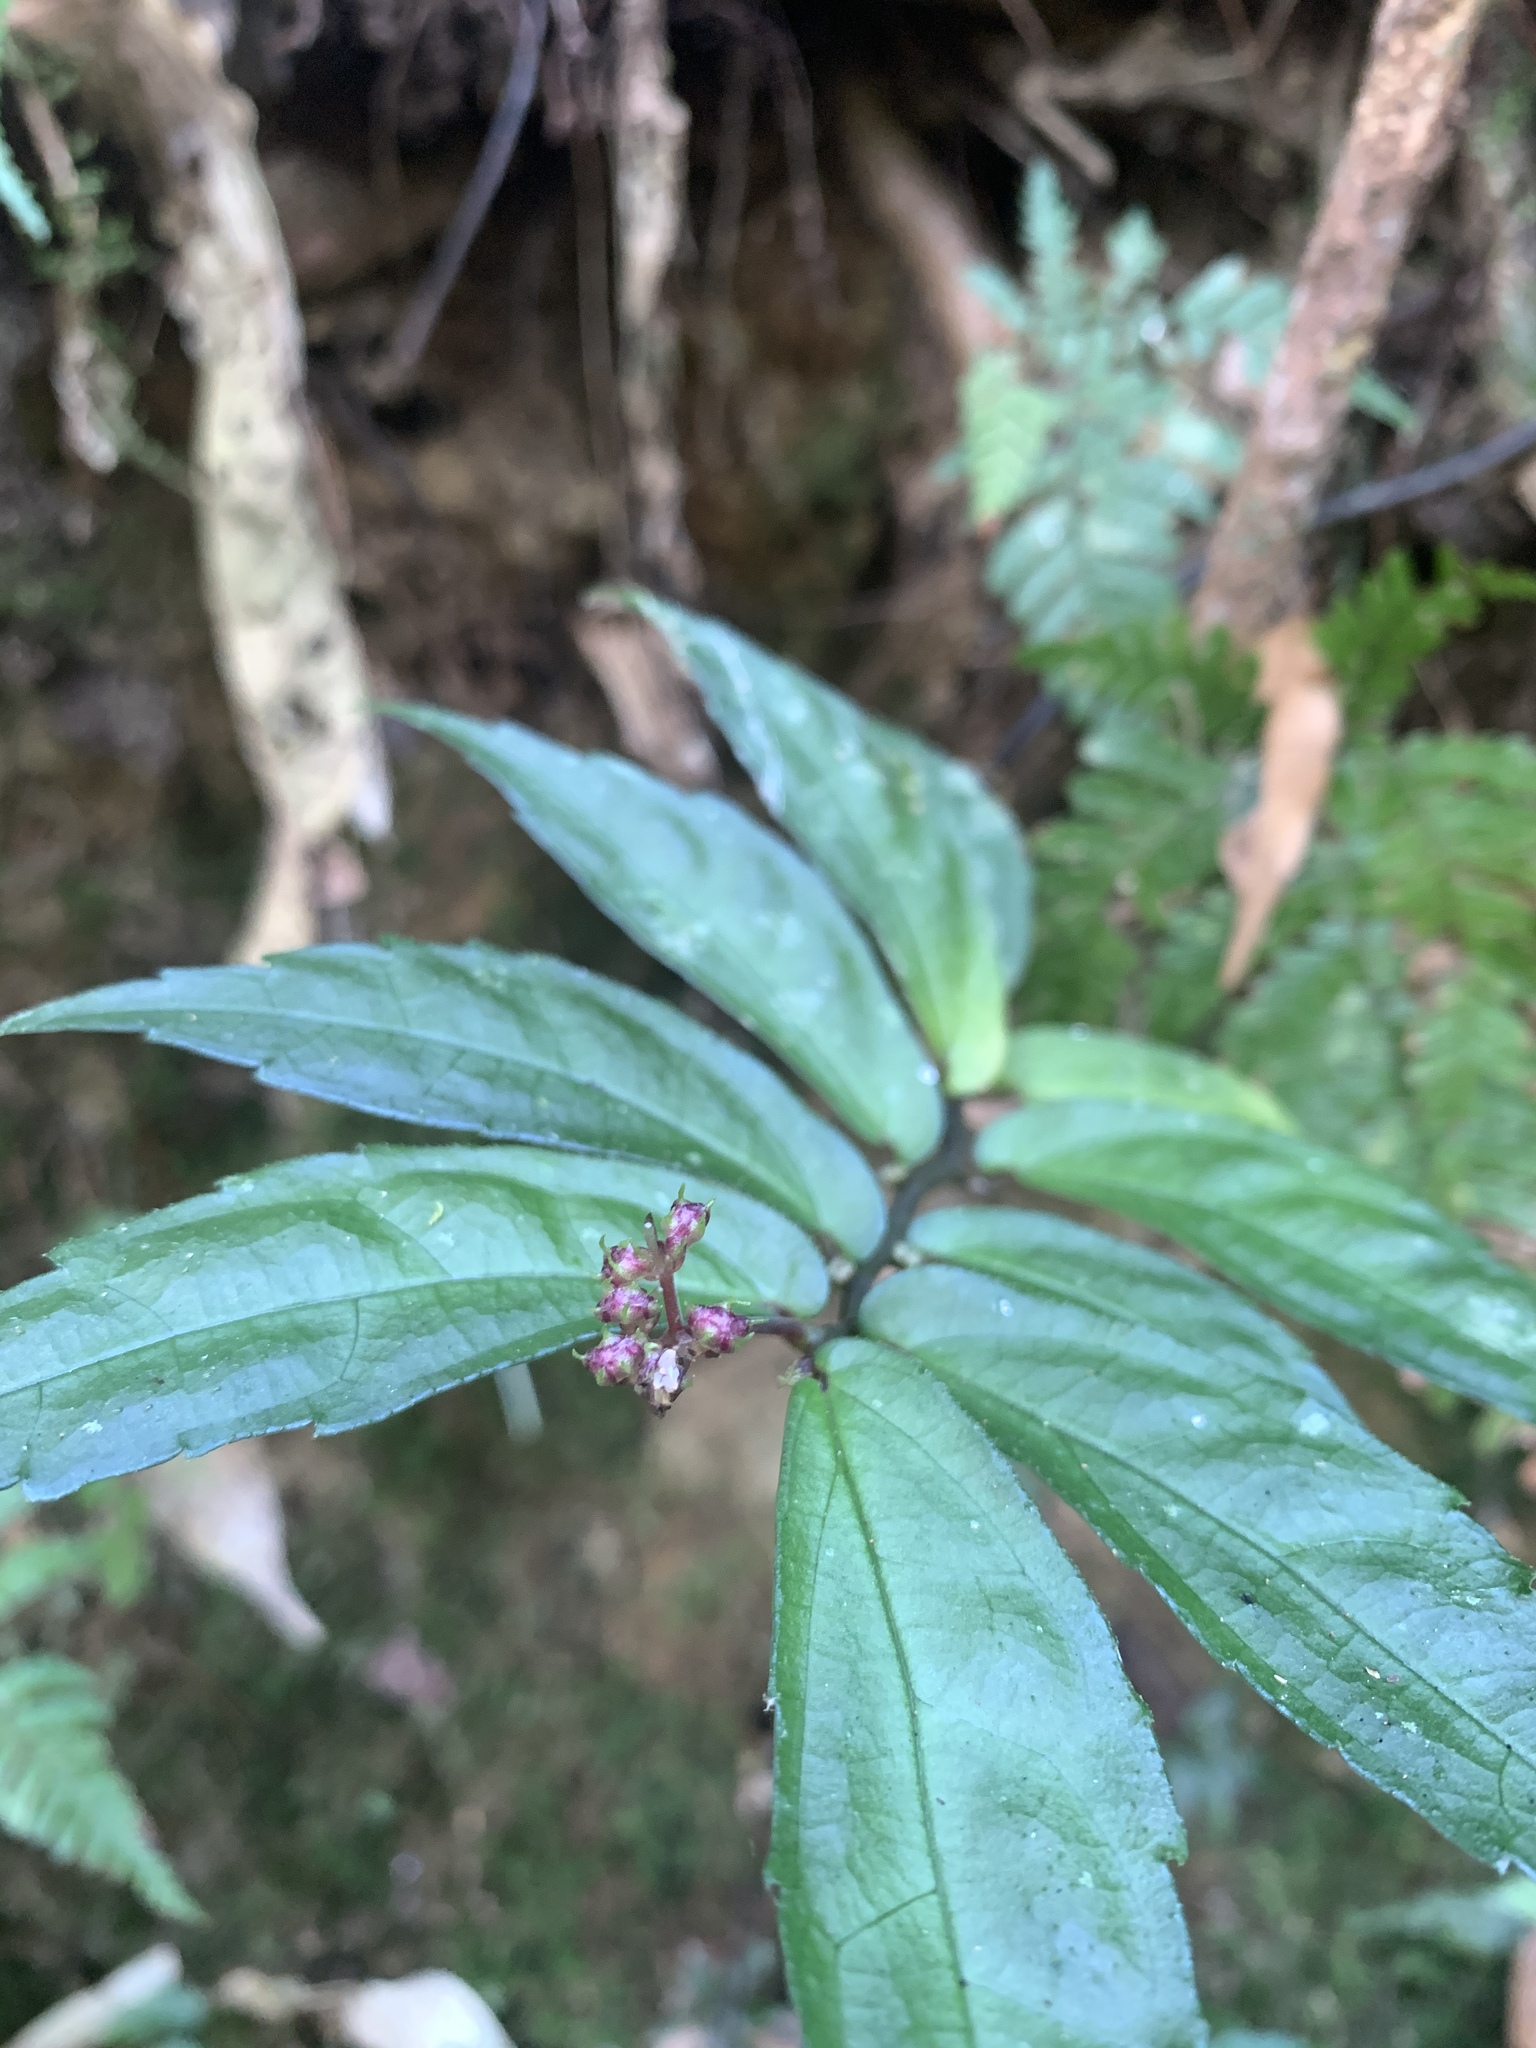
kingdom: Plantae
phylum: Tracheophyta
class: Magnoliopsida
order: Rosales
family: Urticaceae
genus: Elatostema
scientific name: Elatostema radicans
